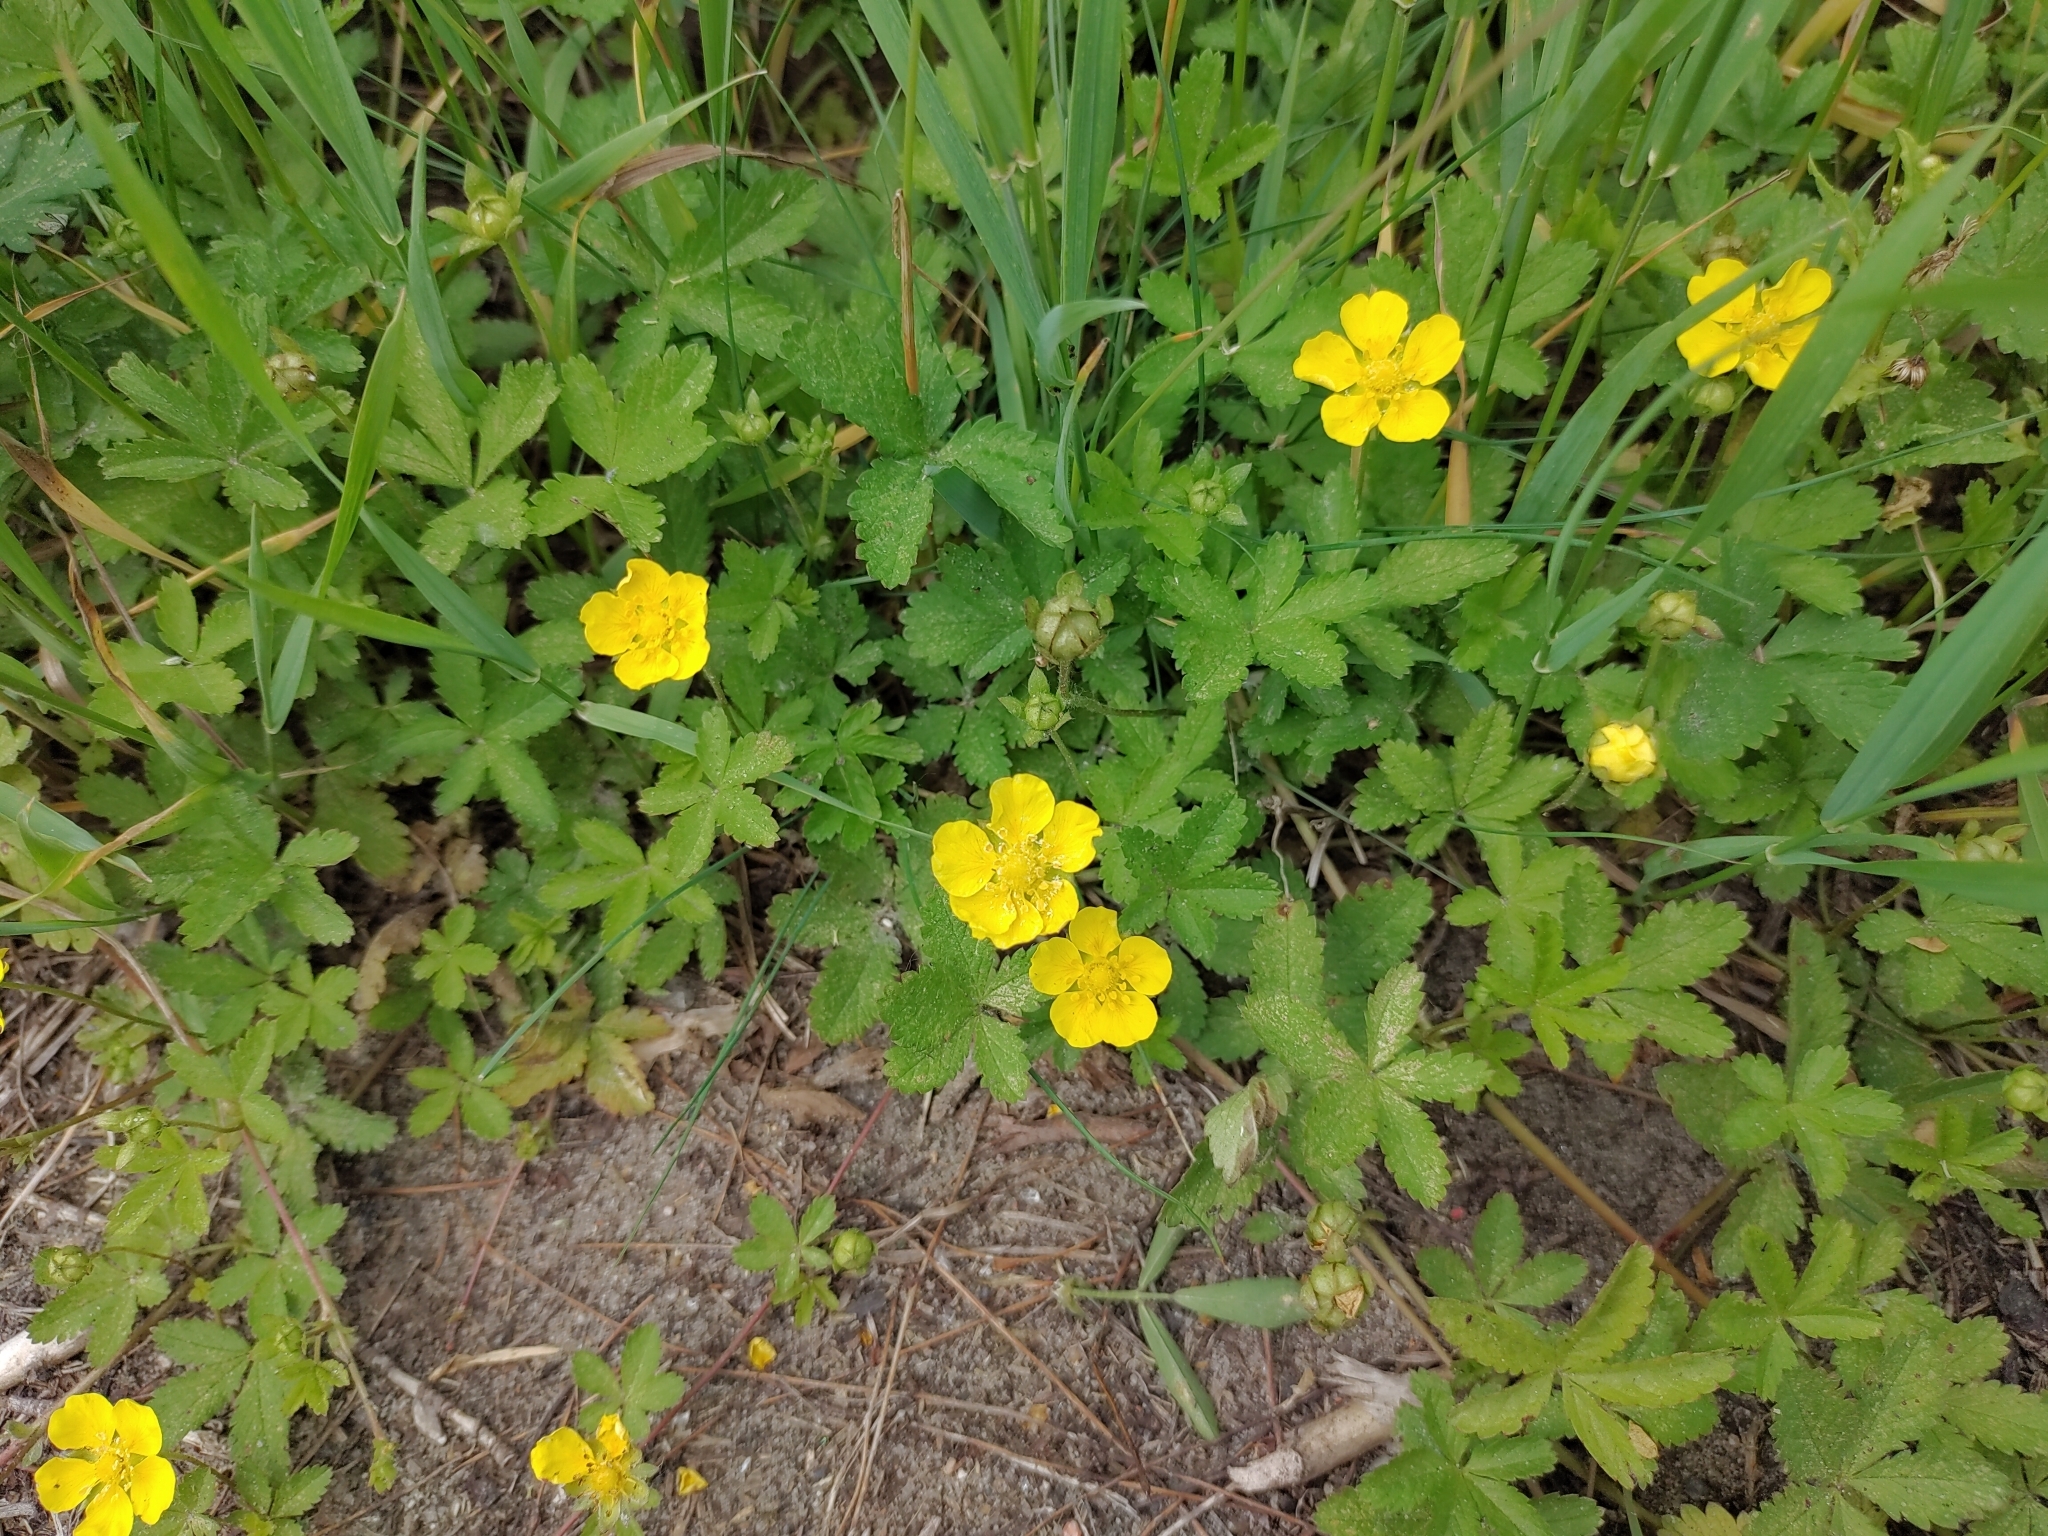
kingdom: Plantae
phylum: Tracheophyta
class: Magnoliopsida
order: Rosales
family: Rosaceae
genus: Potentilla
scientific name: Potentilla reptans
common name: Creeping cinquefoil
